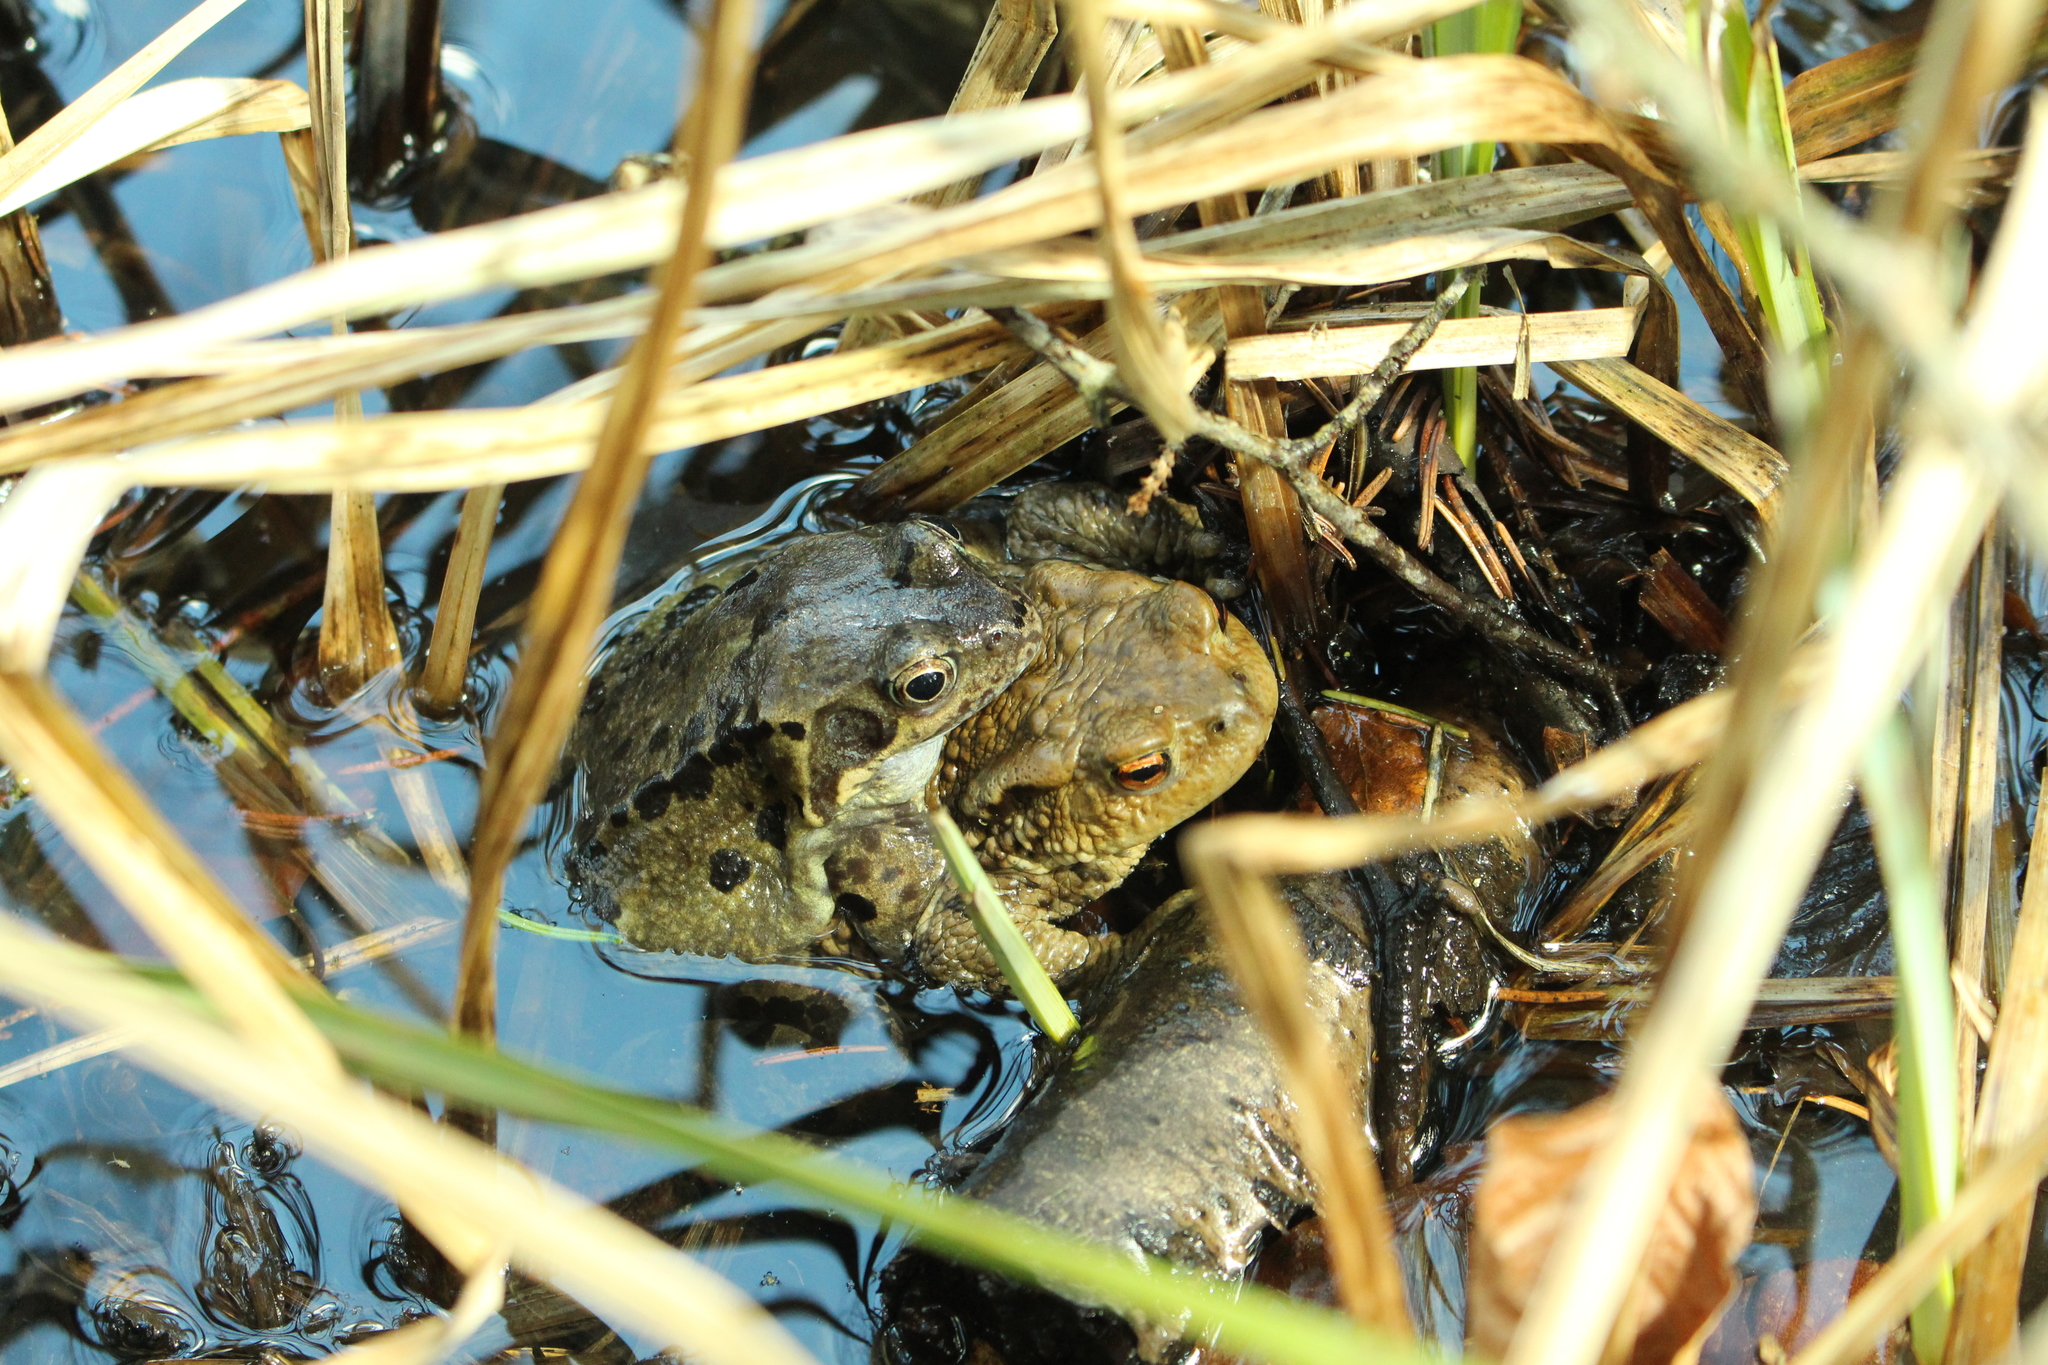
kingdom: Animalia
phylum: Chordata
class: Amphibia
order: Anura
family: Ranidae
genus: Rana
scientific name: Rana temporaria
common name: Common frog
